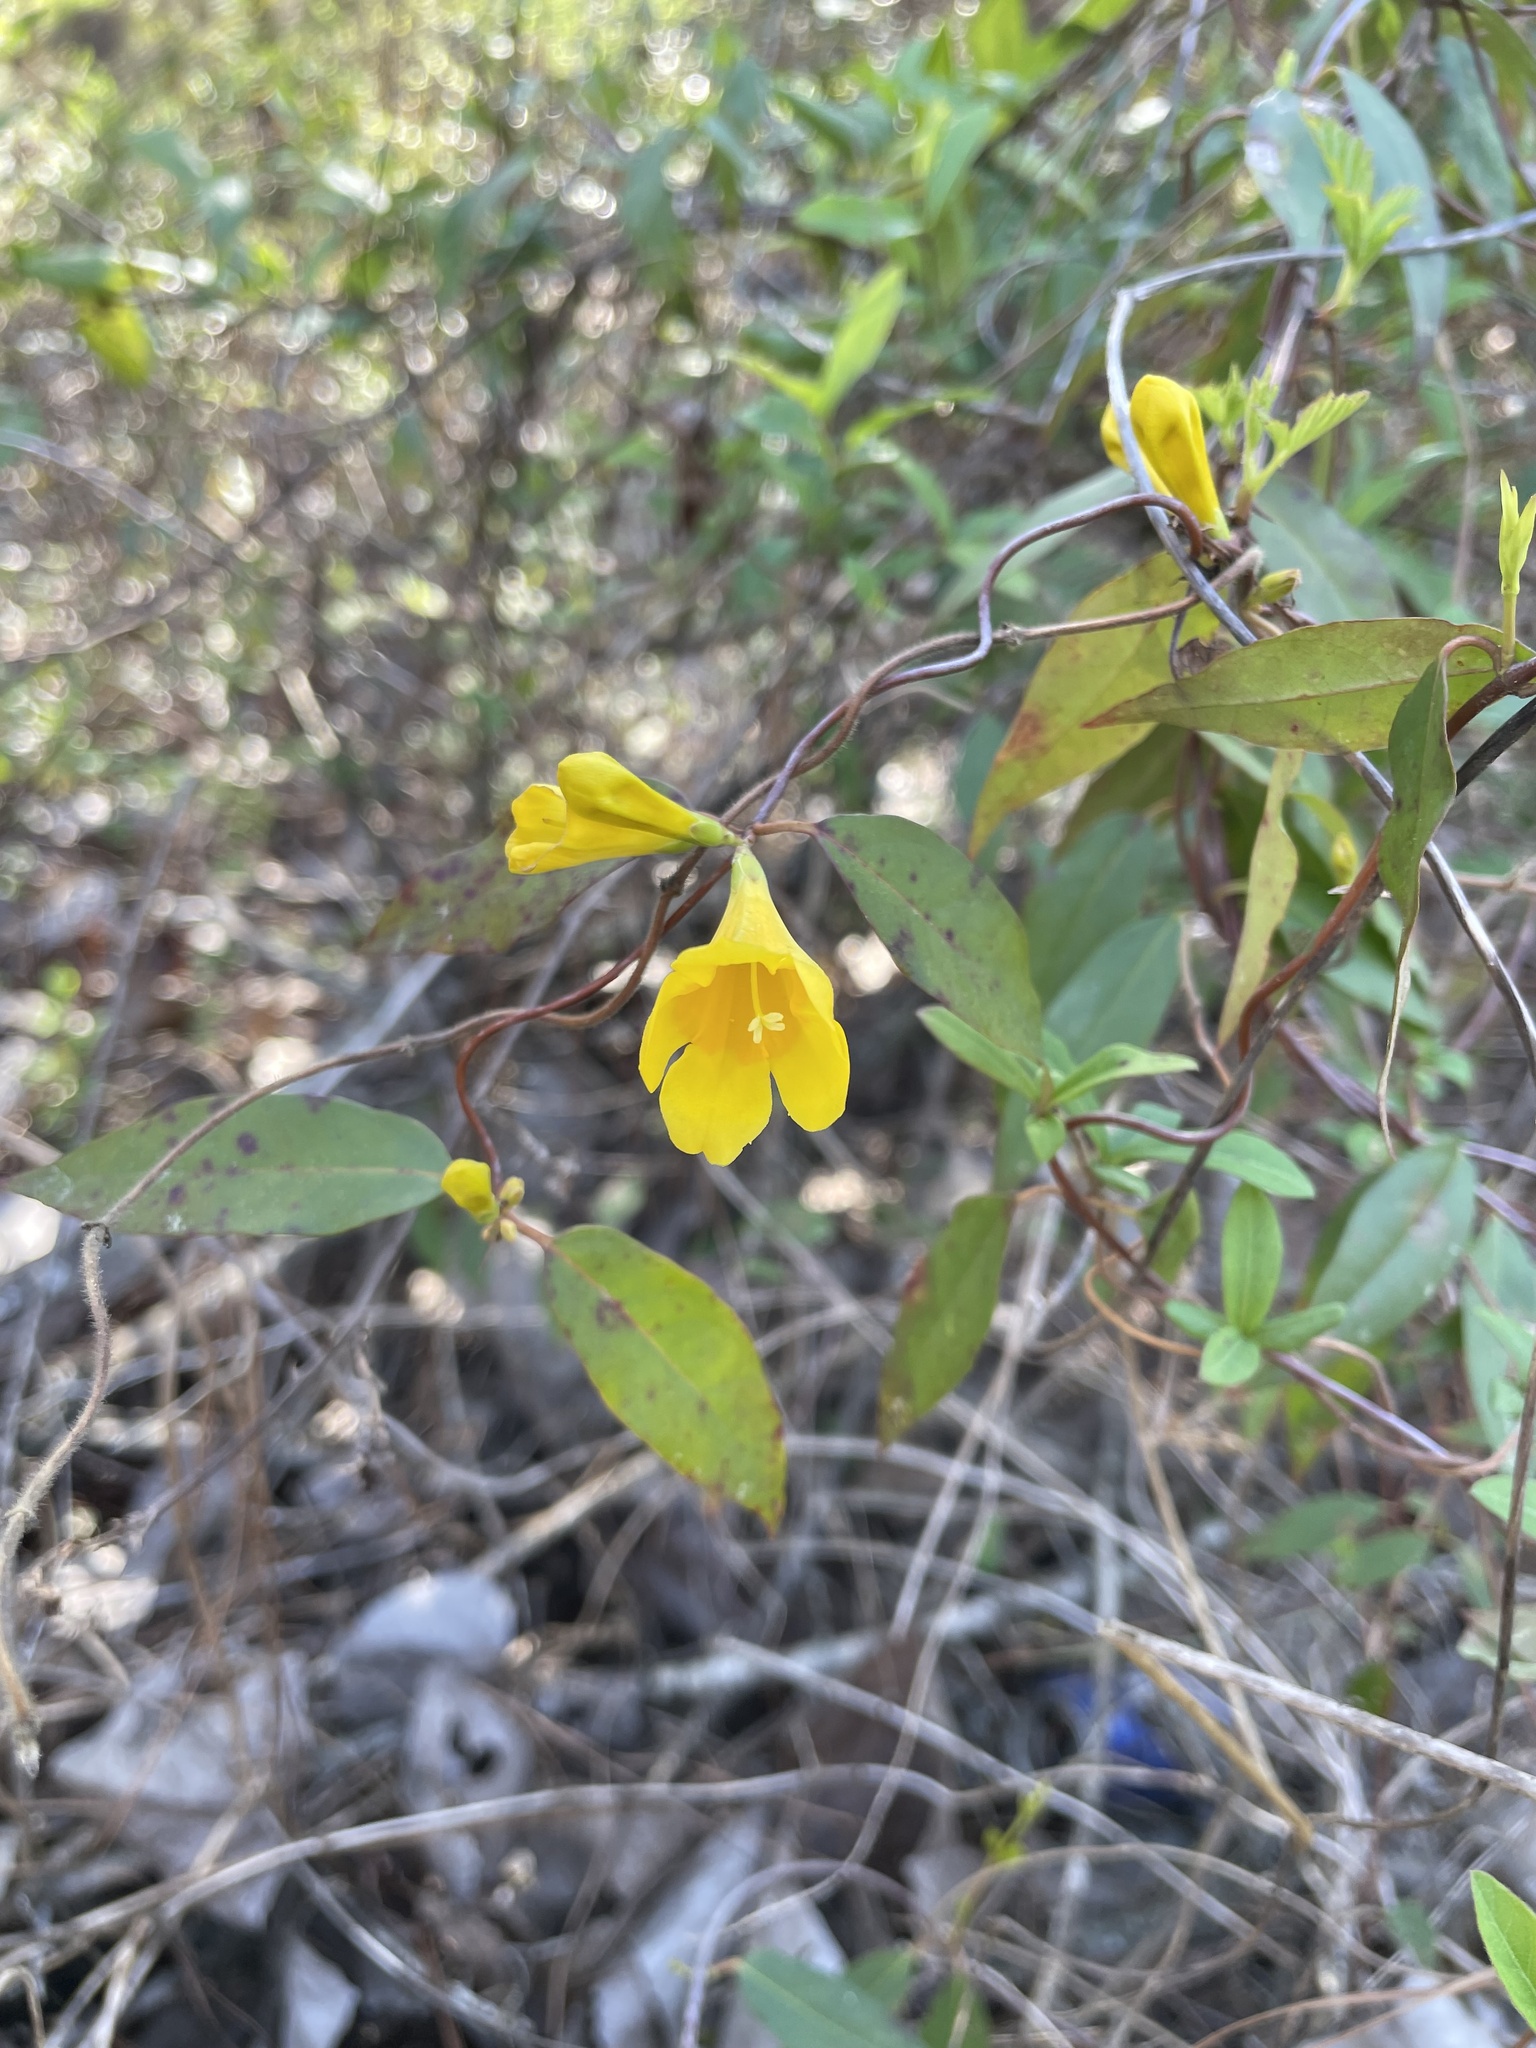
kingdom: Plantae
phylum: Tracheophyta
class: Magnoliopsida
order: Gentianales
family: Gelsemiaceae
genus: Gelsemium
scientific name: Gelsemium sempervirens
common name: Carolina-jasmine
